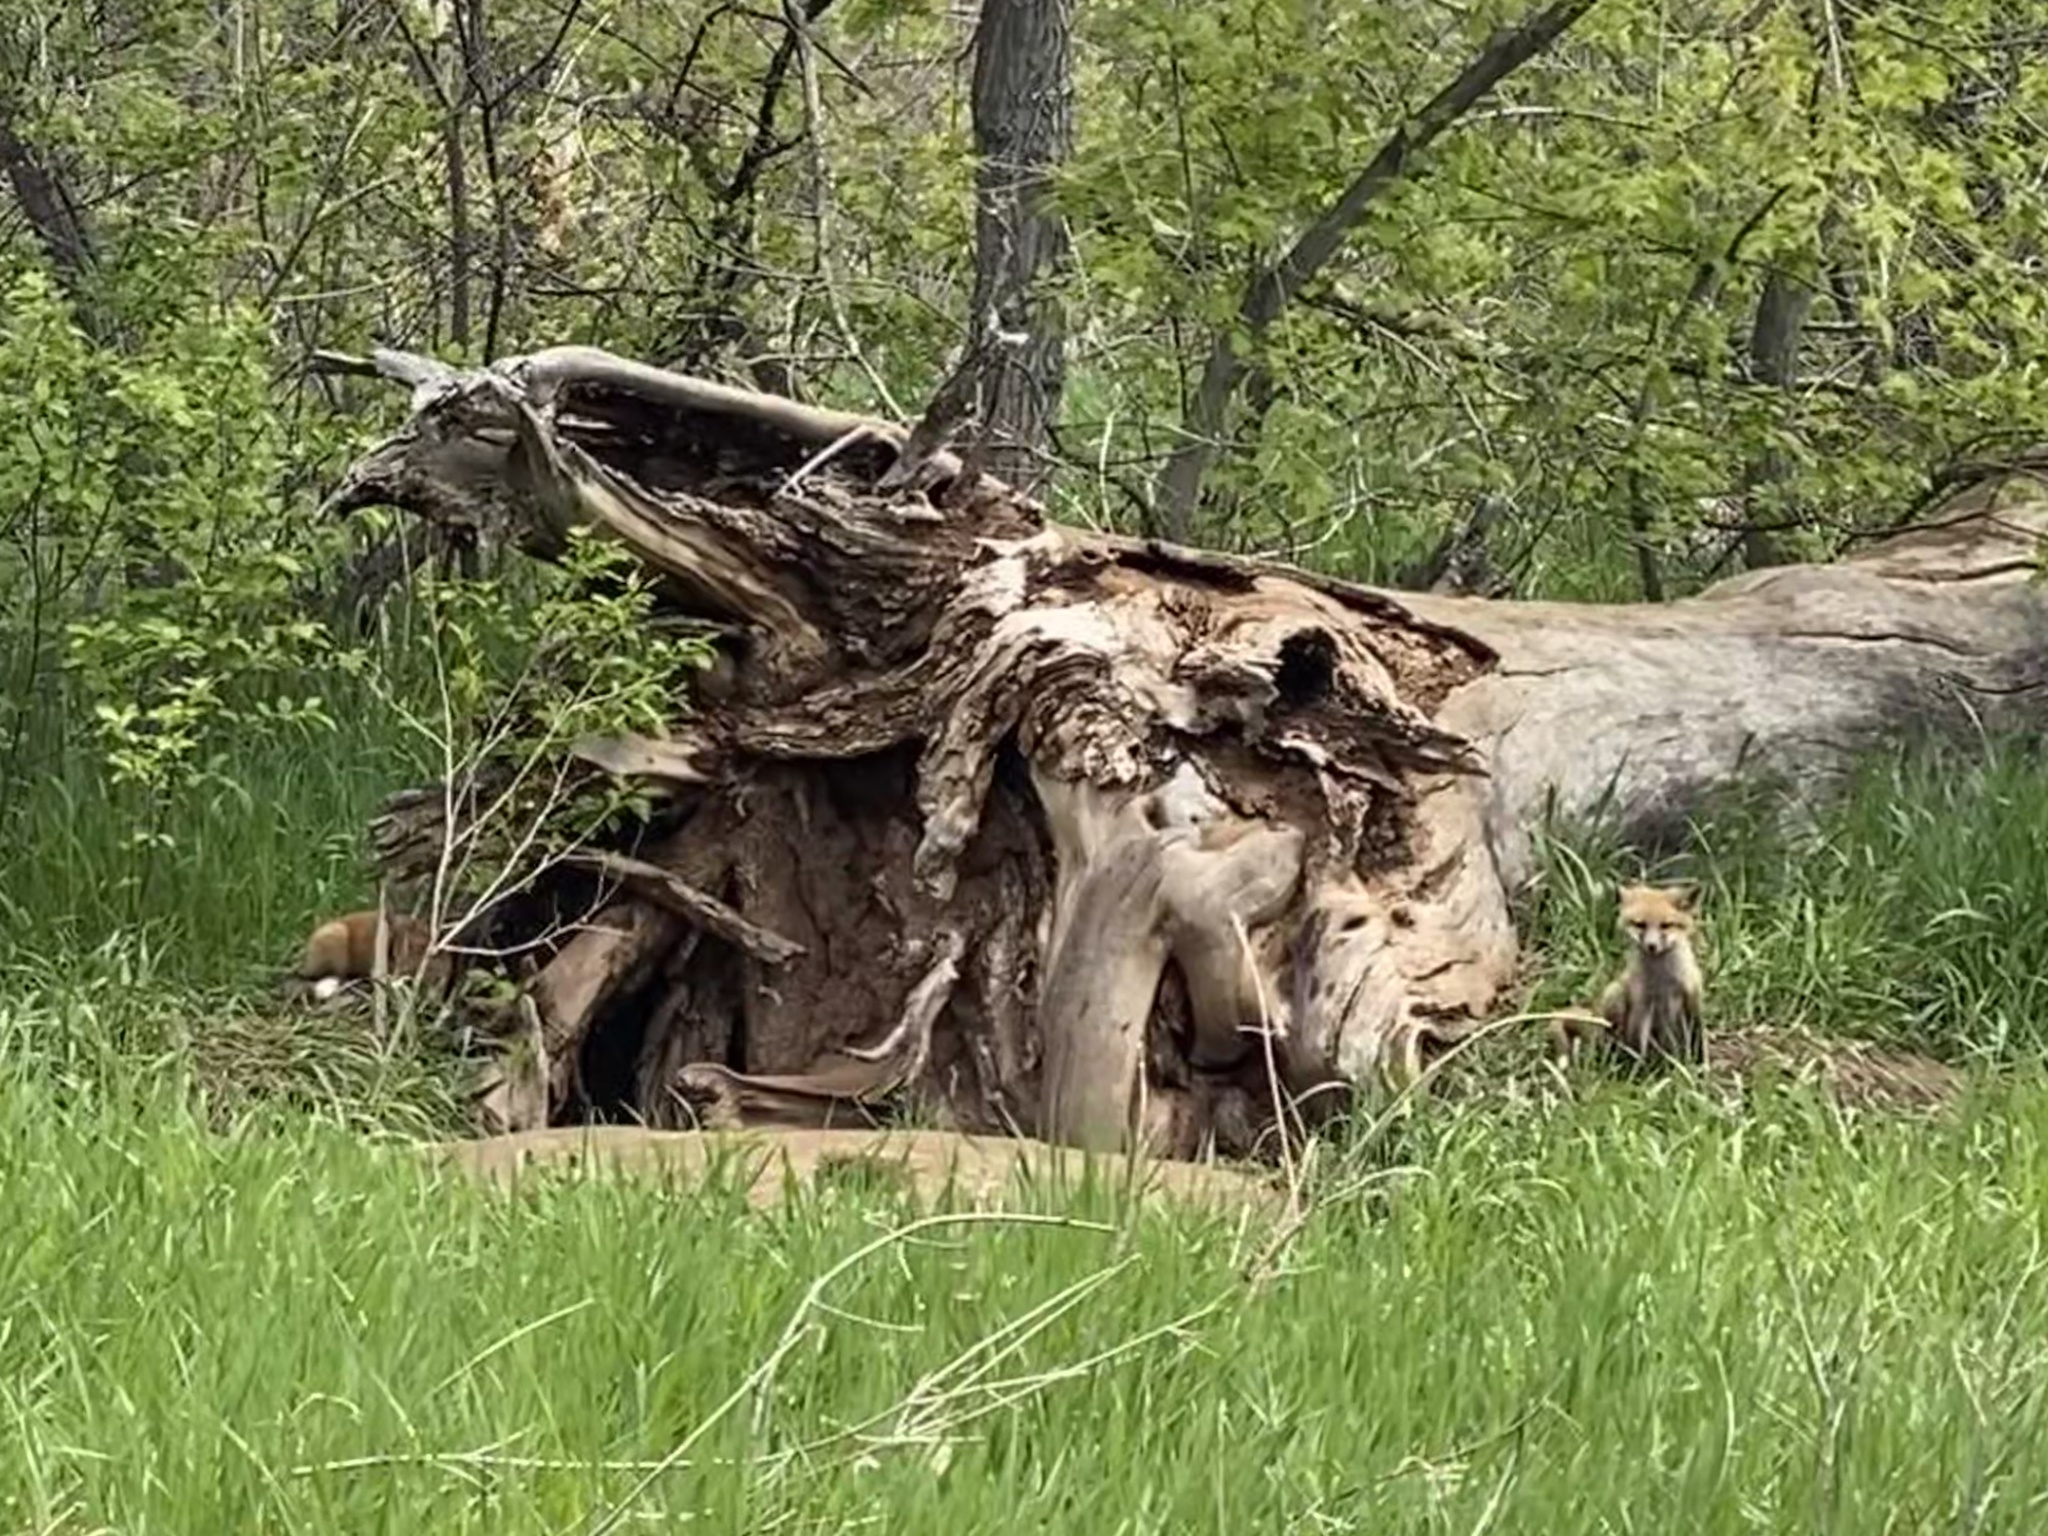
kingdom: Animalia
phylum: Chordata
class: Mammalia
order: Carnivora
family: Canidae
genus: Vulpes
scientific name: Vulpes vulpes
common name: Red fox
